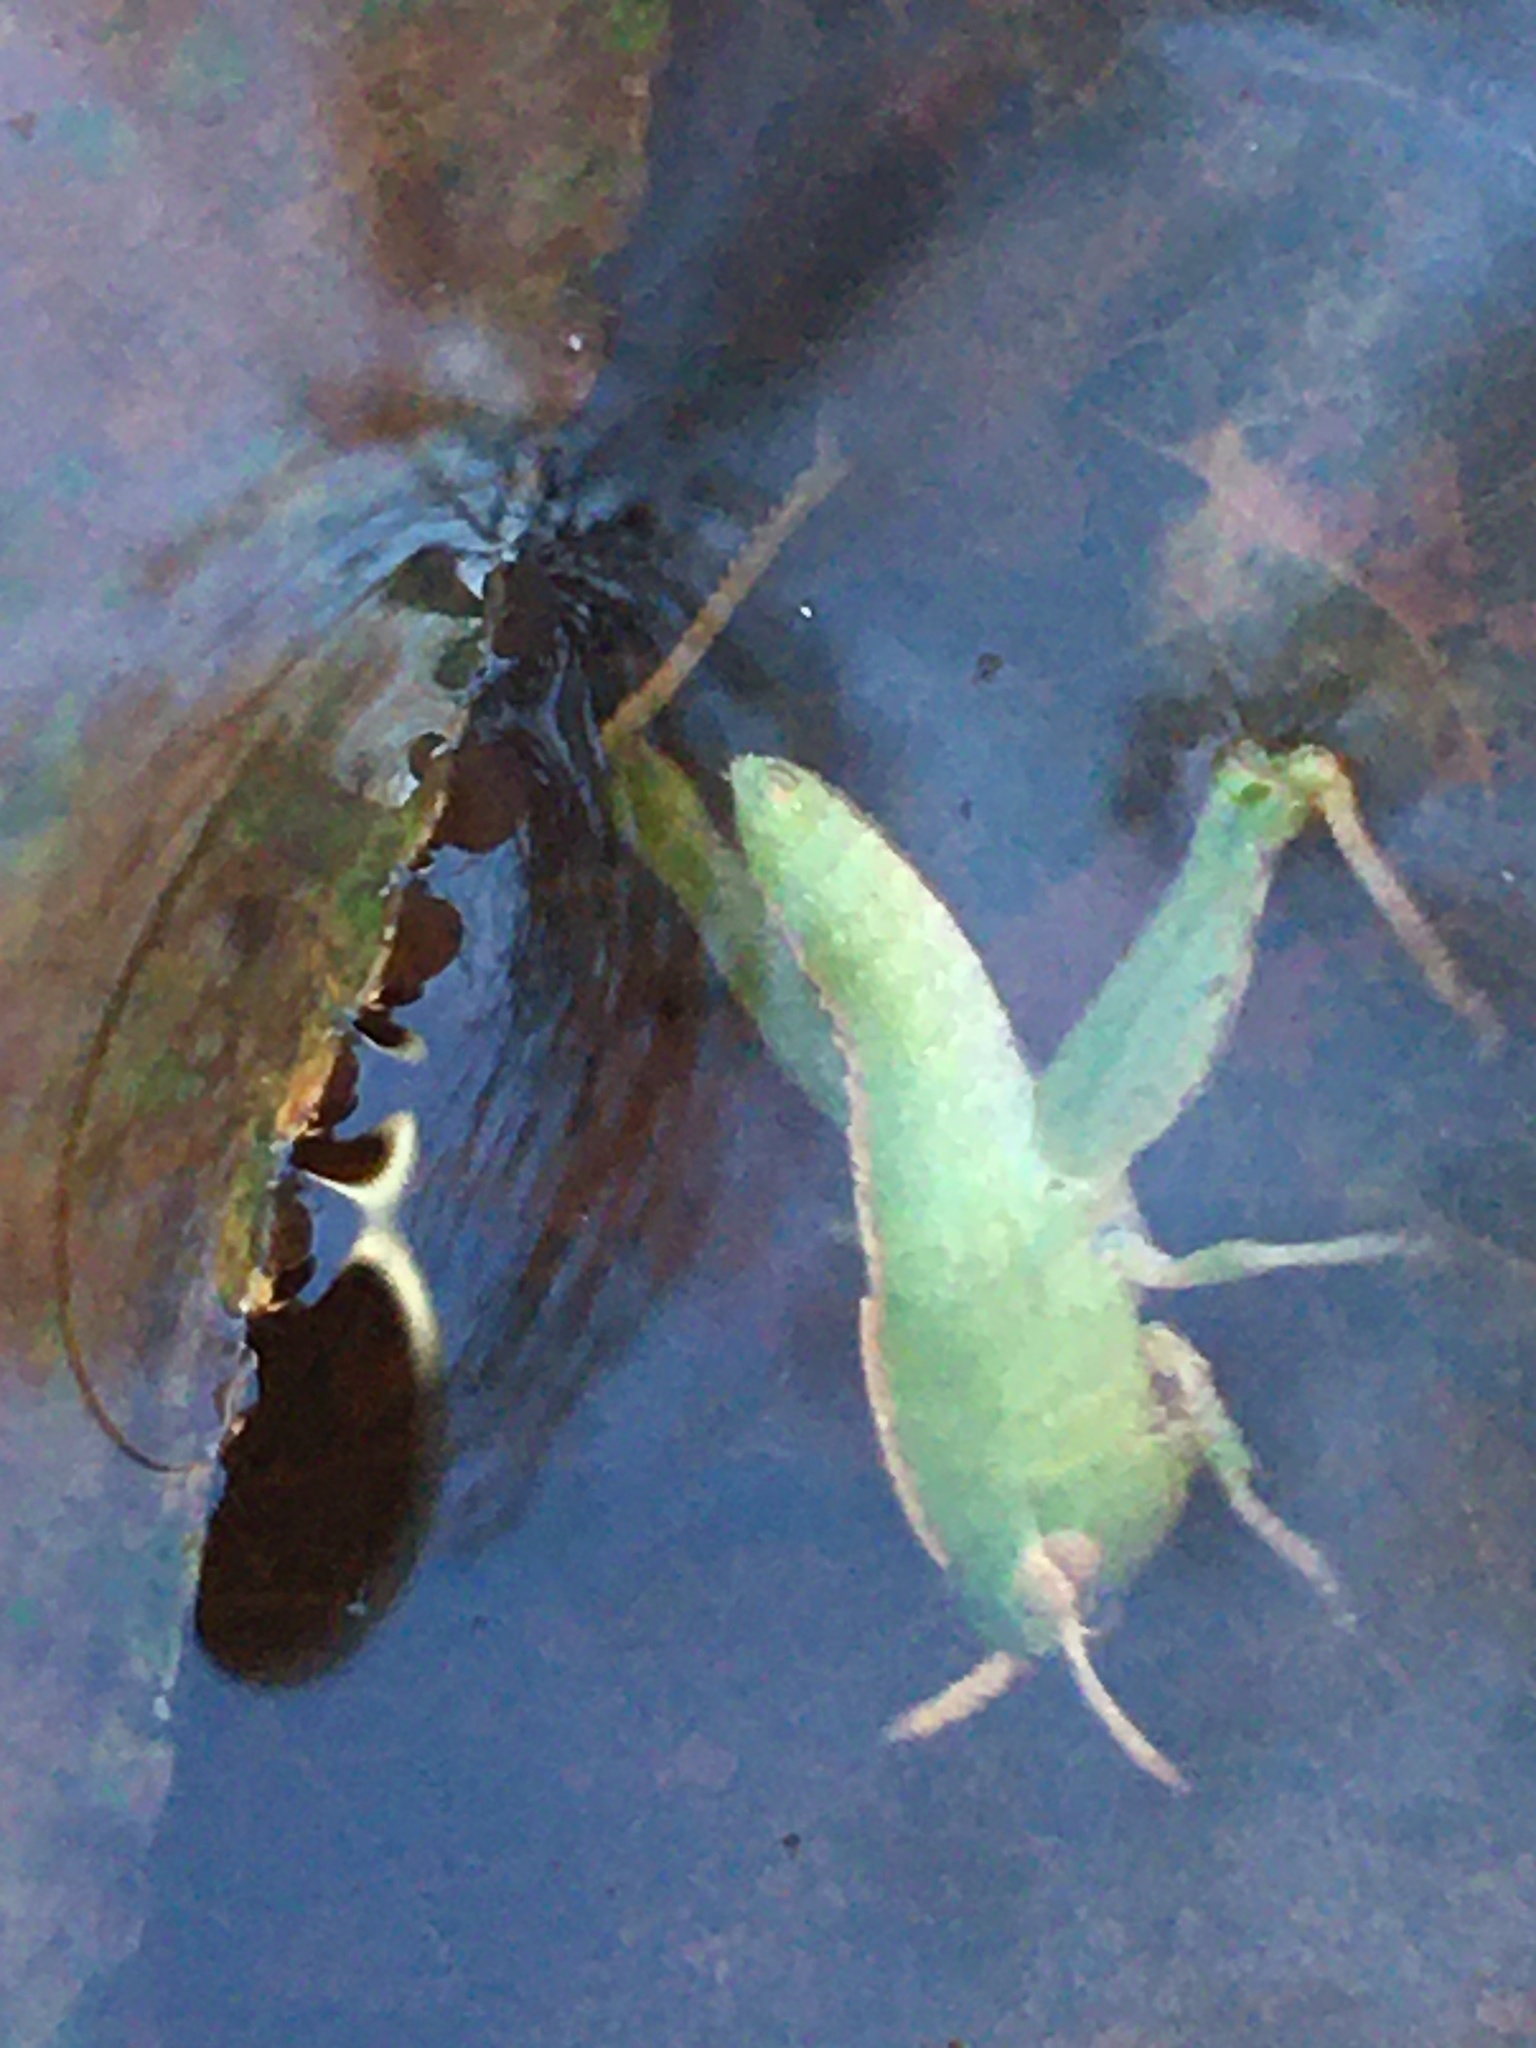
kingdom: Animalia
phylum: Arthropoda
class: Insecta
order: Orthoptera
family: Acrididae
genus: Chortophaga
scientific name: Chortophaga viridifasciata
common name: Green-striped grasshopper
